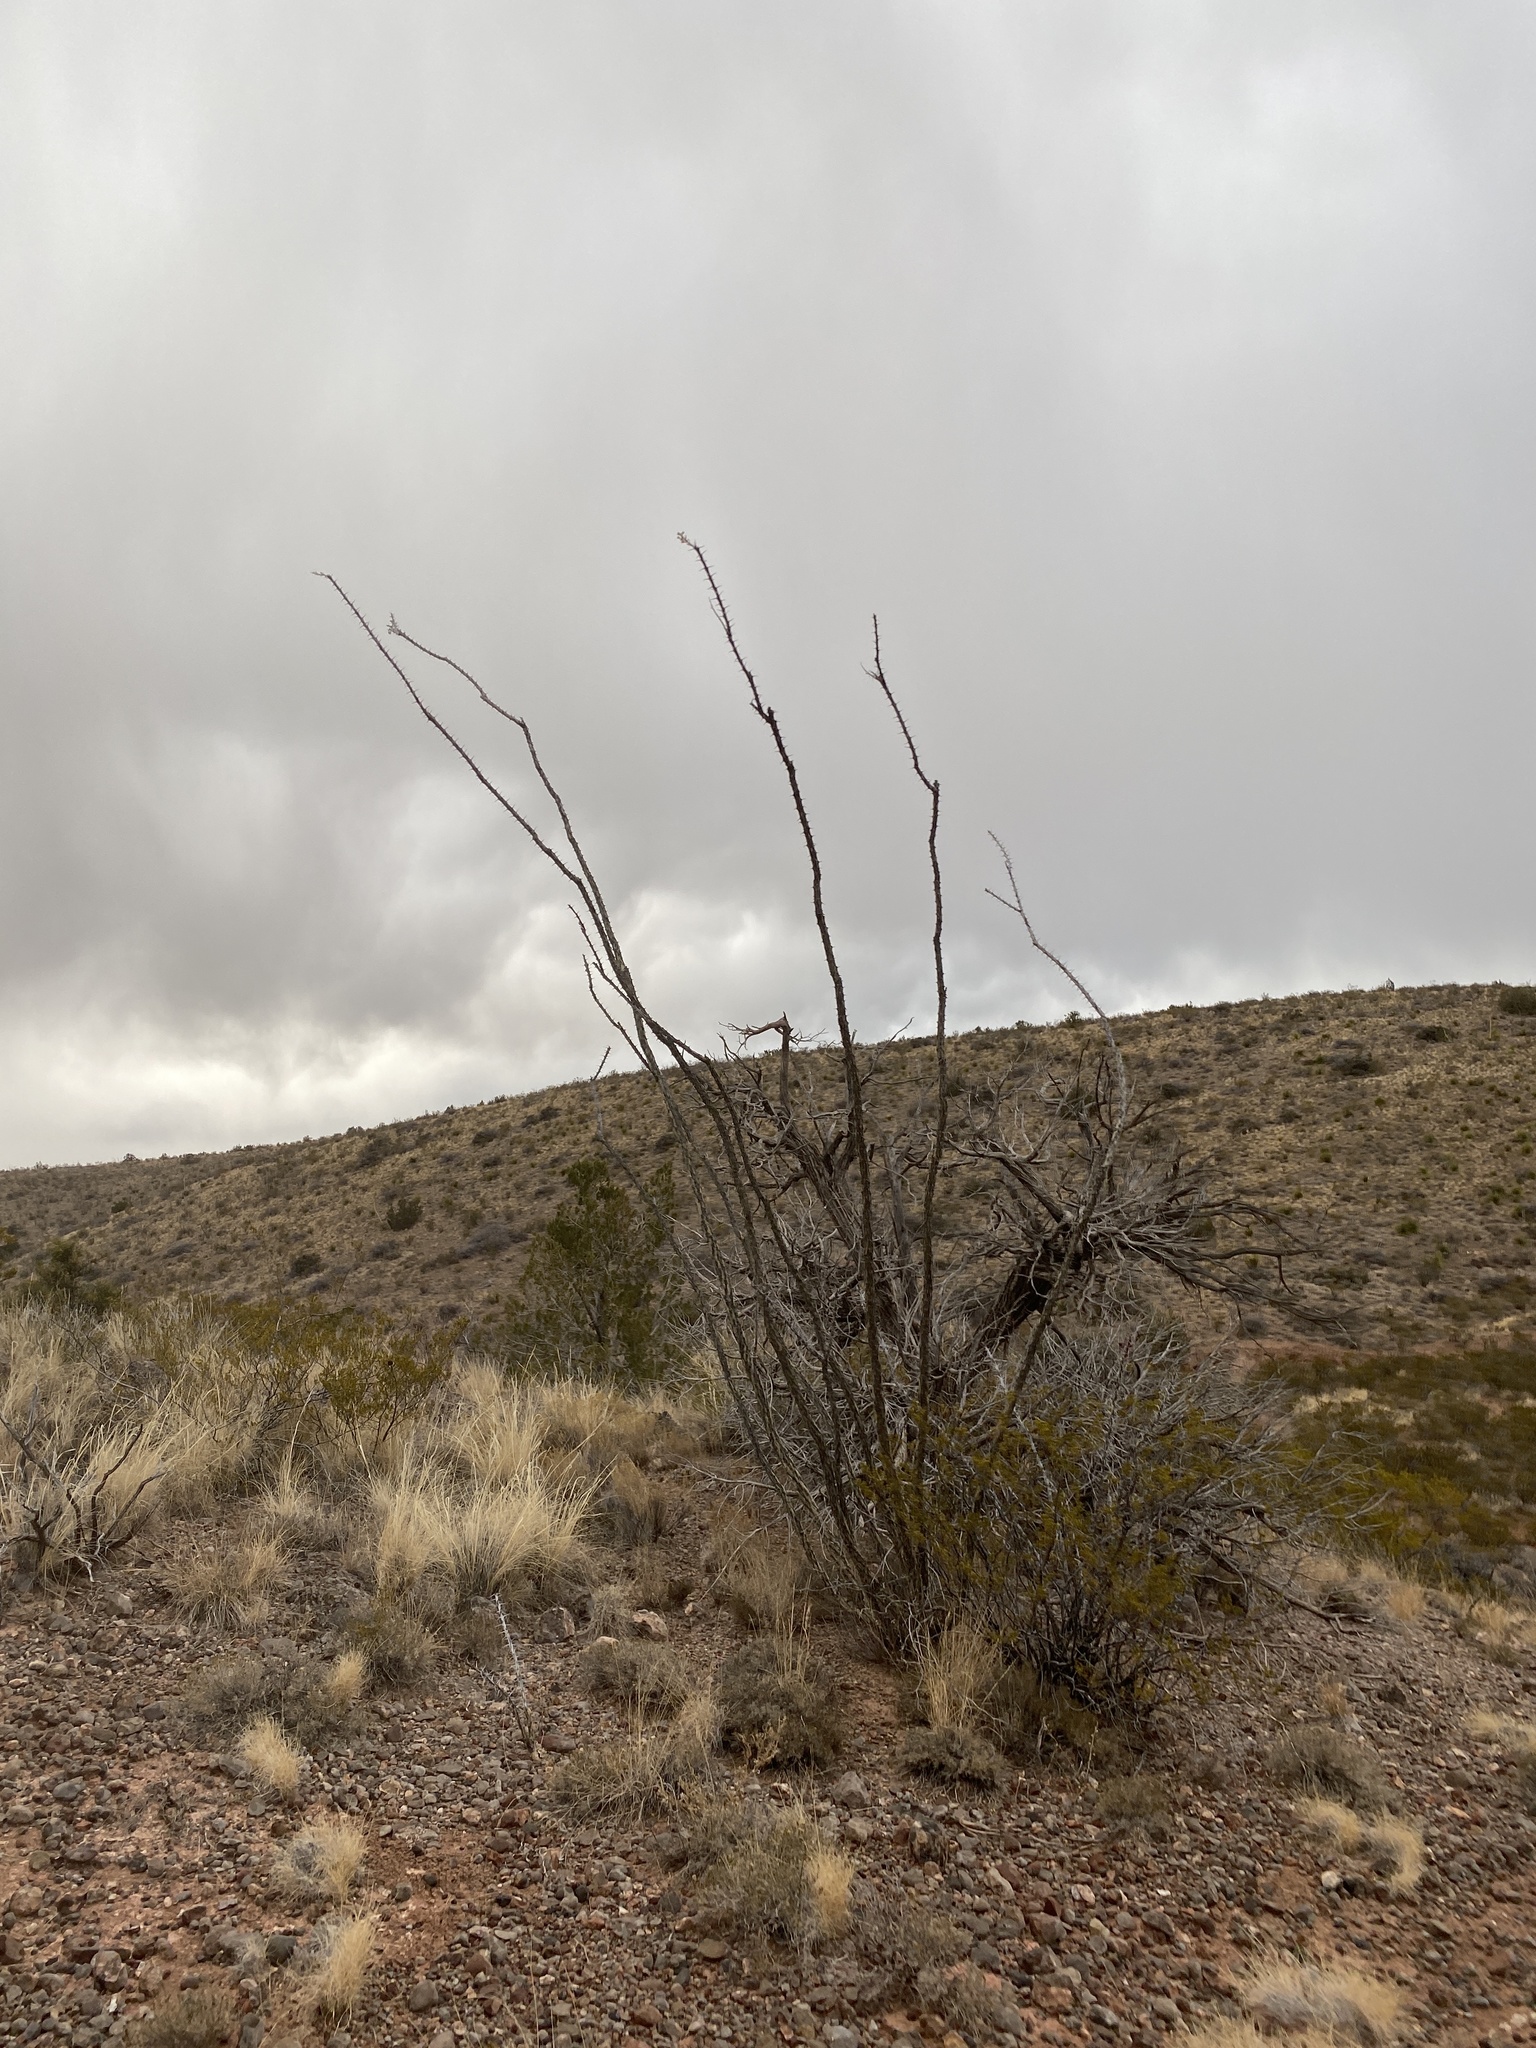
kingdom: Plantae
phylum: Tracheophyta
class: Magnoliopsida
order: Ericales
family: Fouquieriaceae
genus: Fouquieria
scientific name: Fouquieria splendens
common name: Vine-cactus
